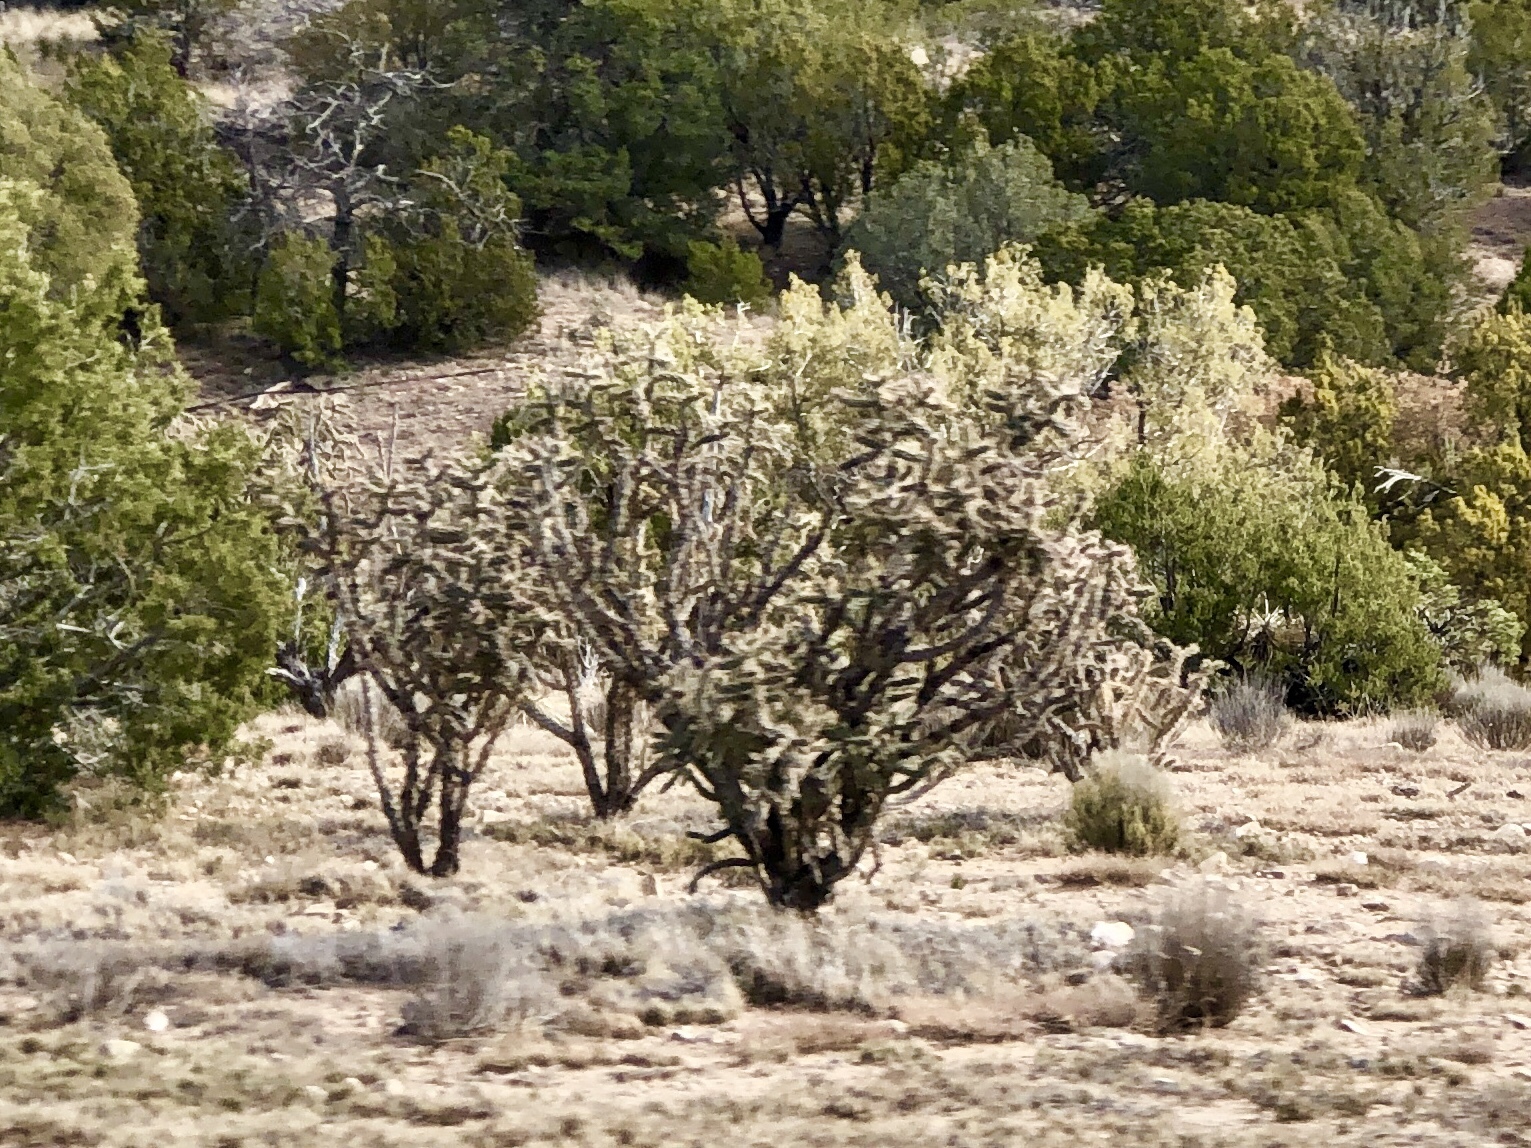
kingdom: Plantae
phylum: Tracheophyta
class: Magnoliopsida
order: Caryophyllales
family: Cactaceae
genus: Cylindropuntia
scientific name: Cylindropuntia imbricata
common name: Candelabrum cactus
